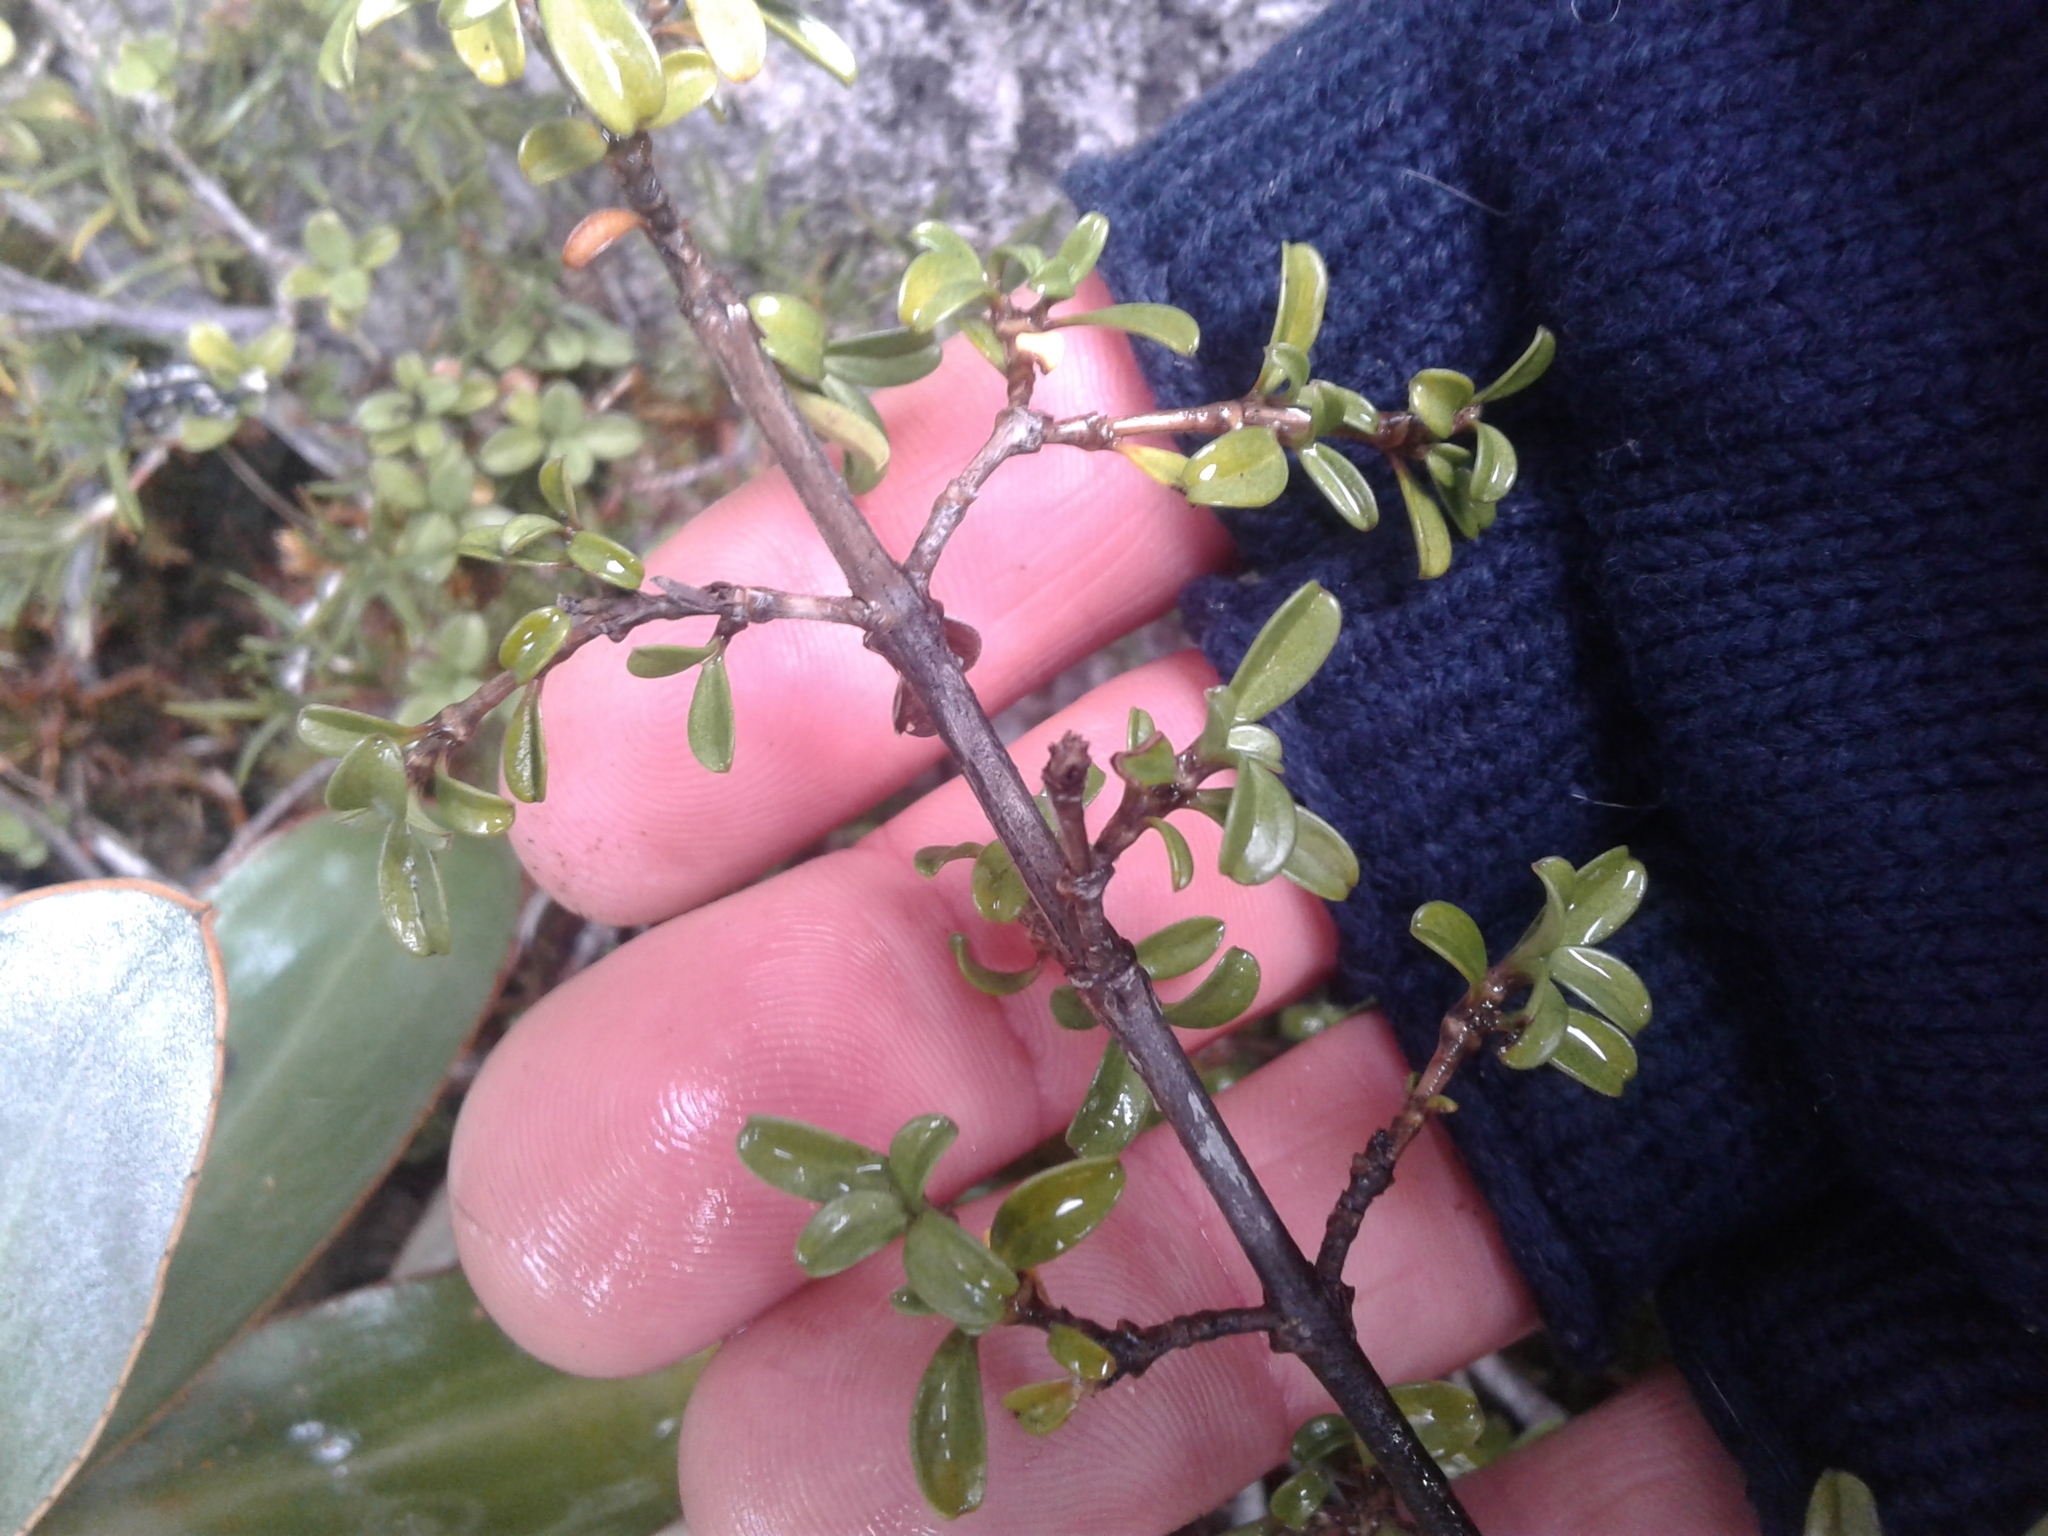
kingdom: Plantae
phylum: Tracheophyta
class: Magnoliopsida
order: Gentianales
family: Rubiaceae
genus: Coprosma
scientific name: Coprosma crenulata
